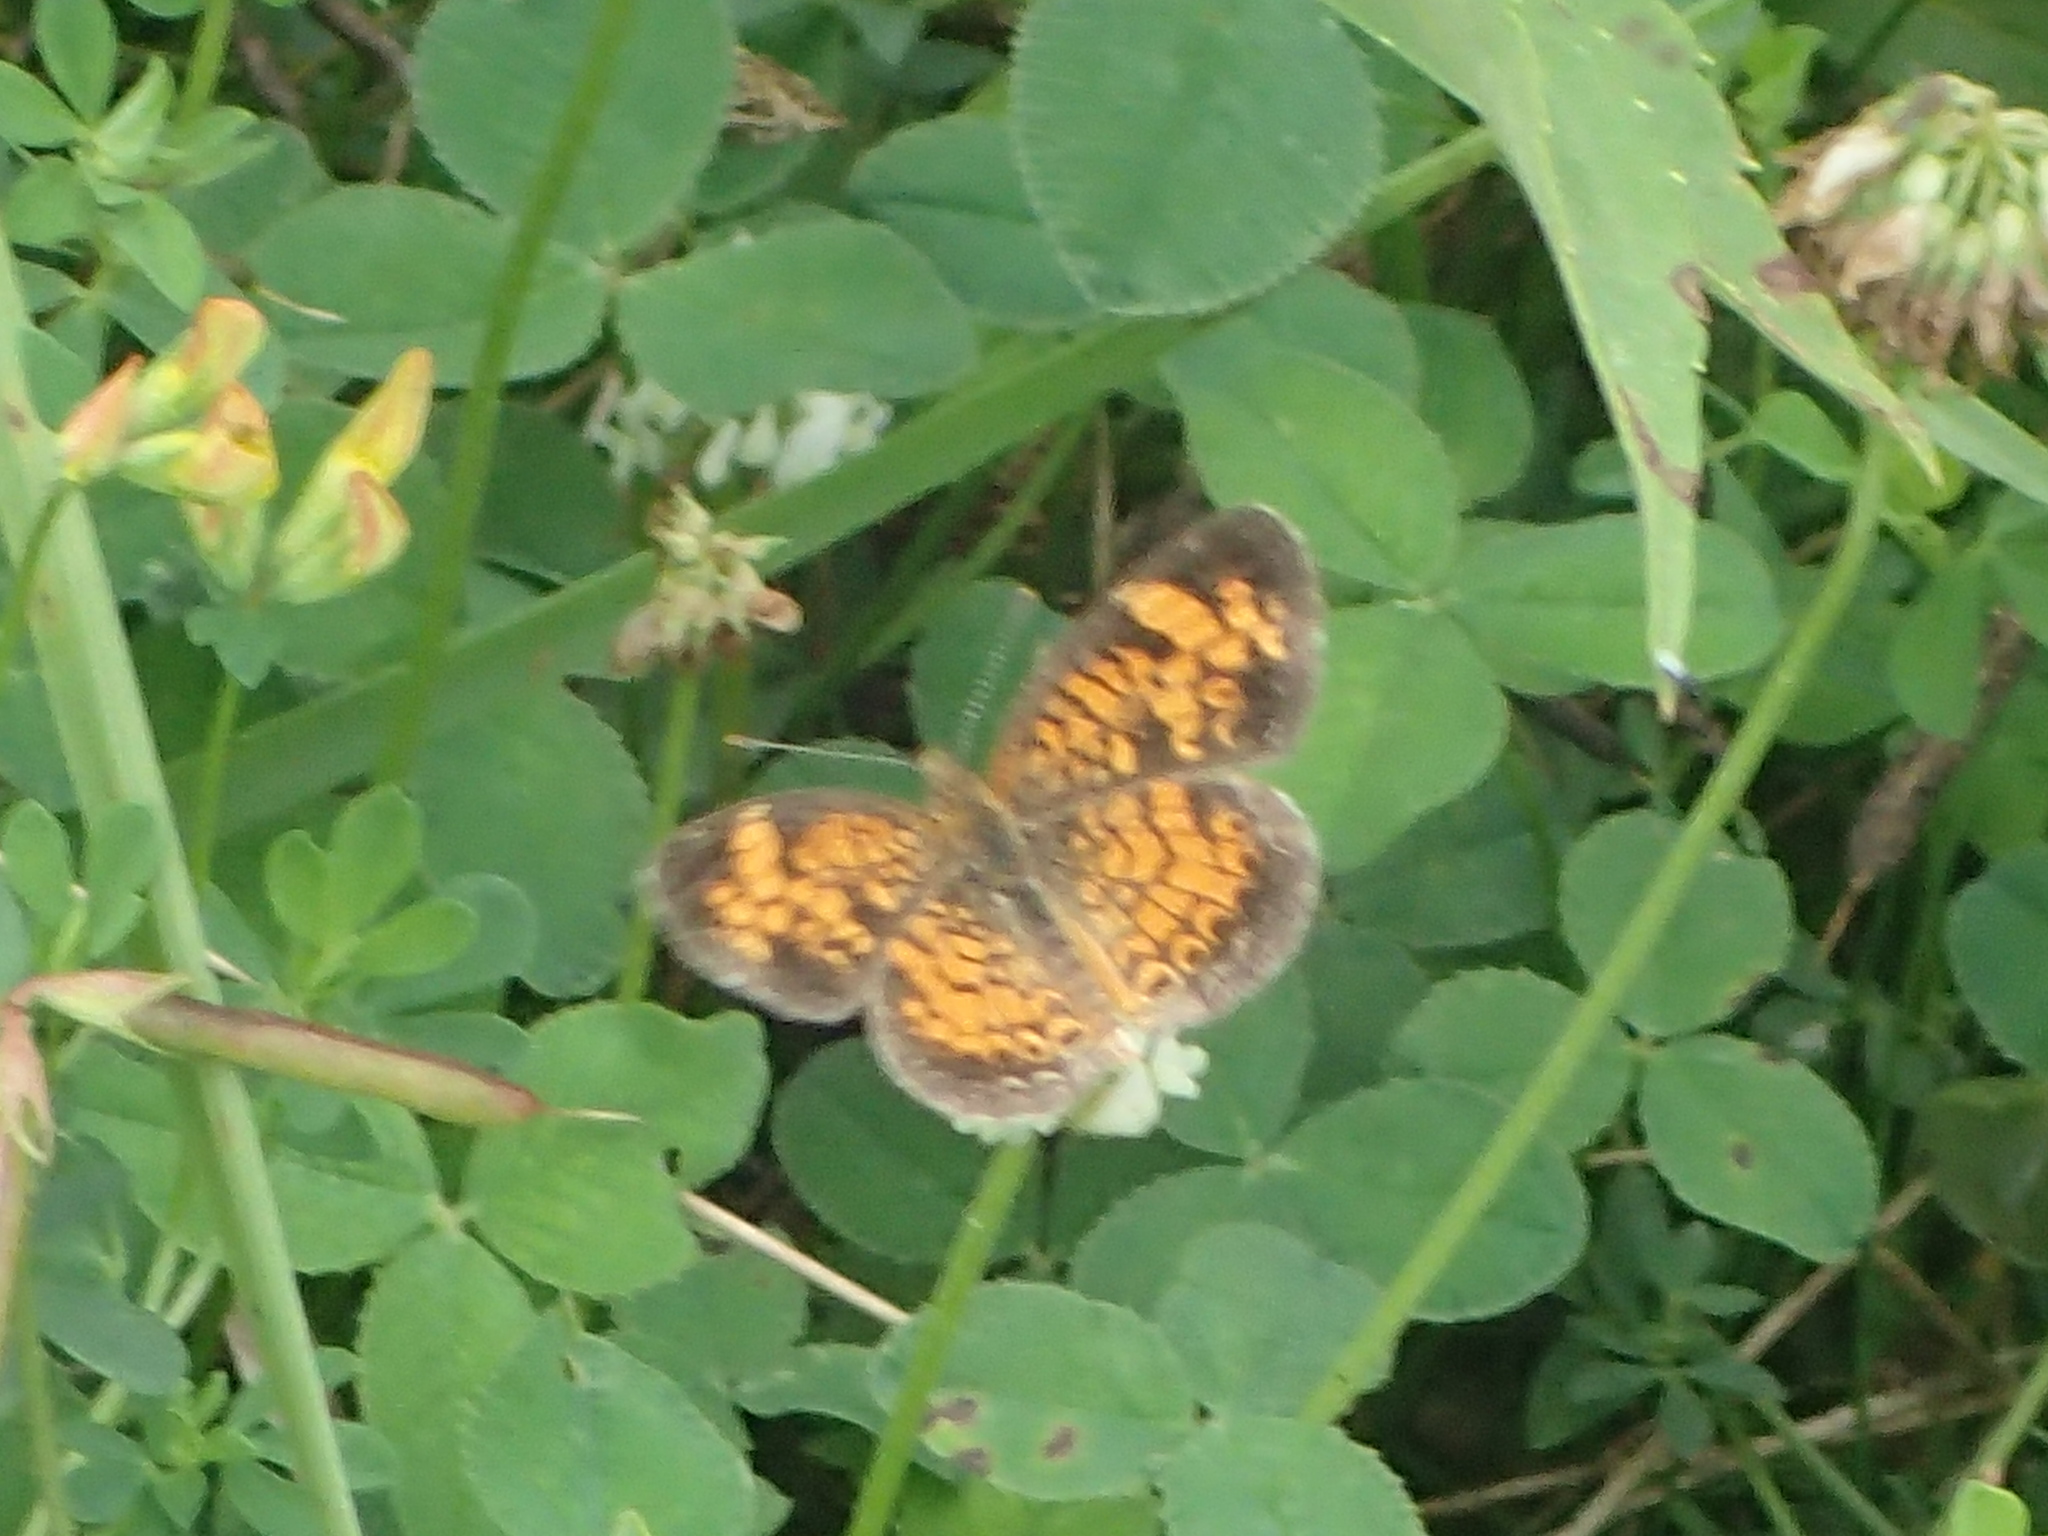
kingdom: Animalia
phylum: Arthropoda
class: Insecta
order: Lepidoptera
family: Nymphalidae
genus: Phyciodes
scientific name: Phyciodes tharos
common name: Pearl crescent
